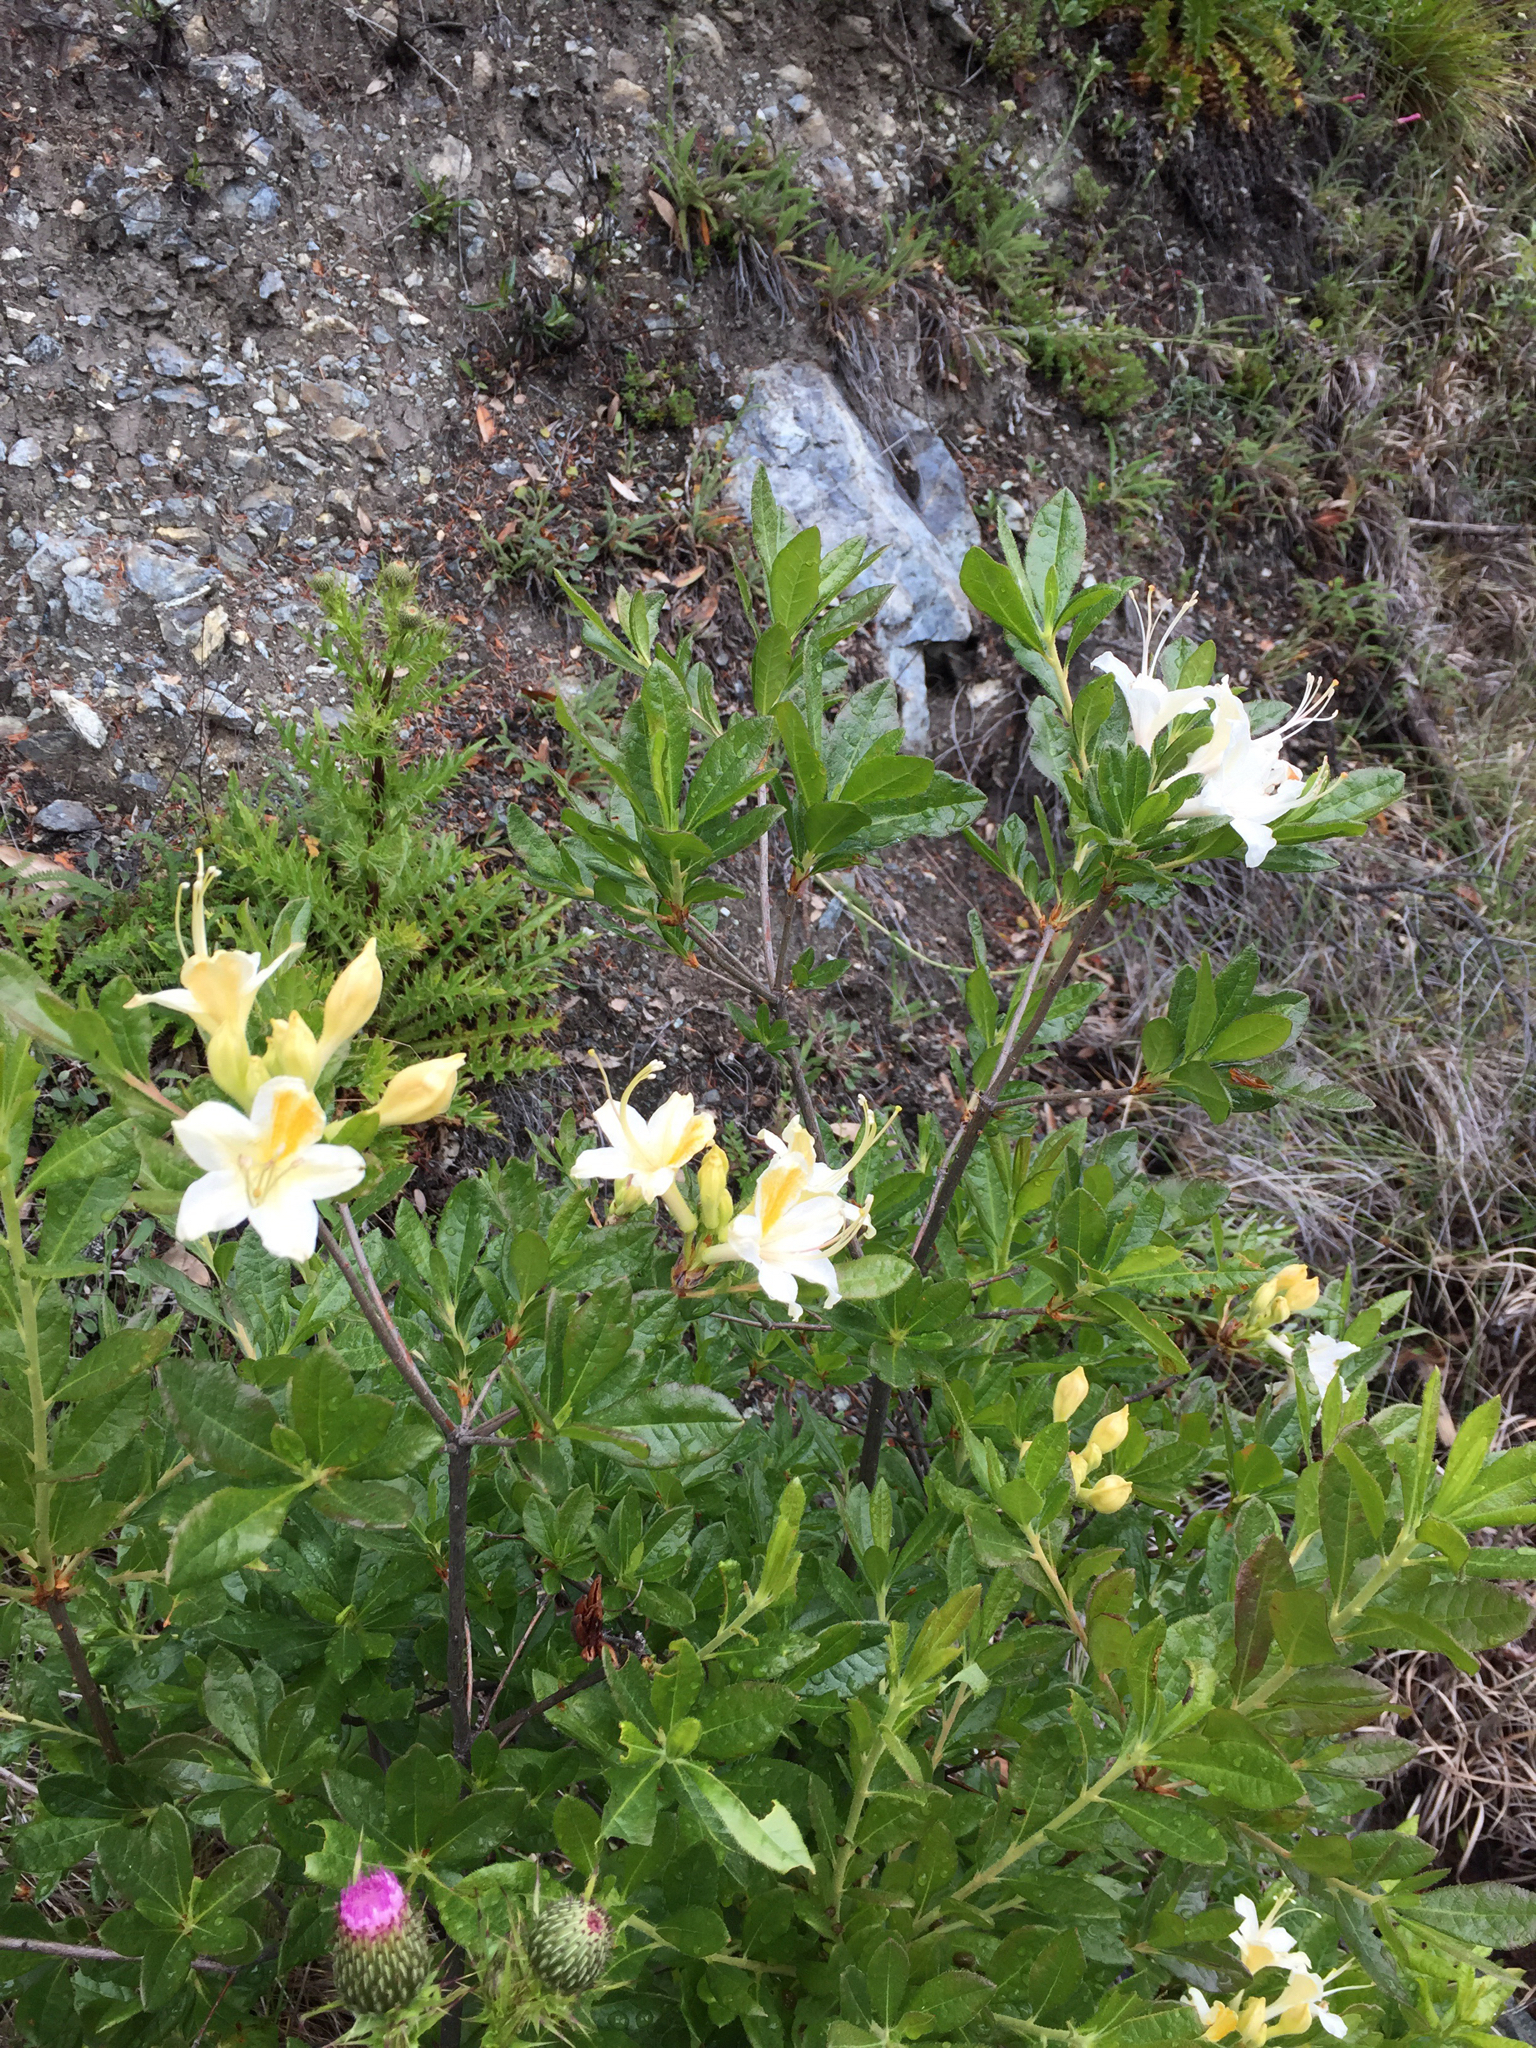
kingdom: Plantae
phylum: Tracheophyta
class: Magnoliopsida
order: Ericales
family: Ericaceae
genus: Rhododendron
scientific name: Rhododendron occidentale
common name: Western azalea
